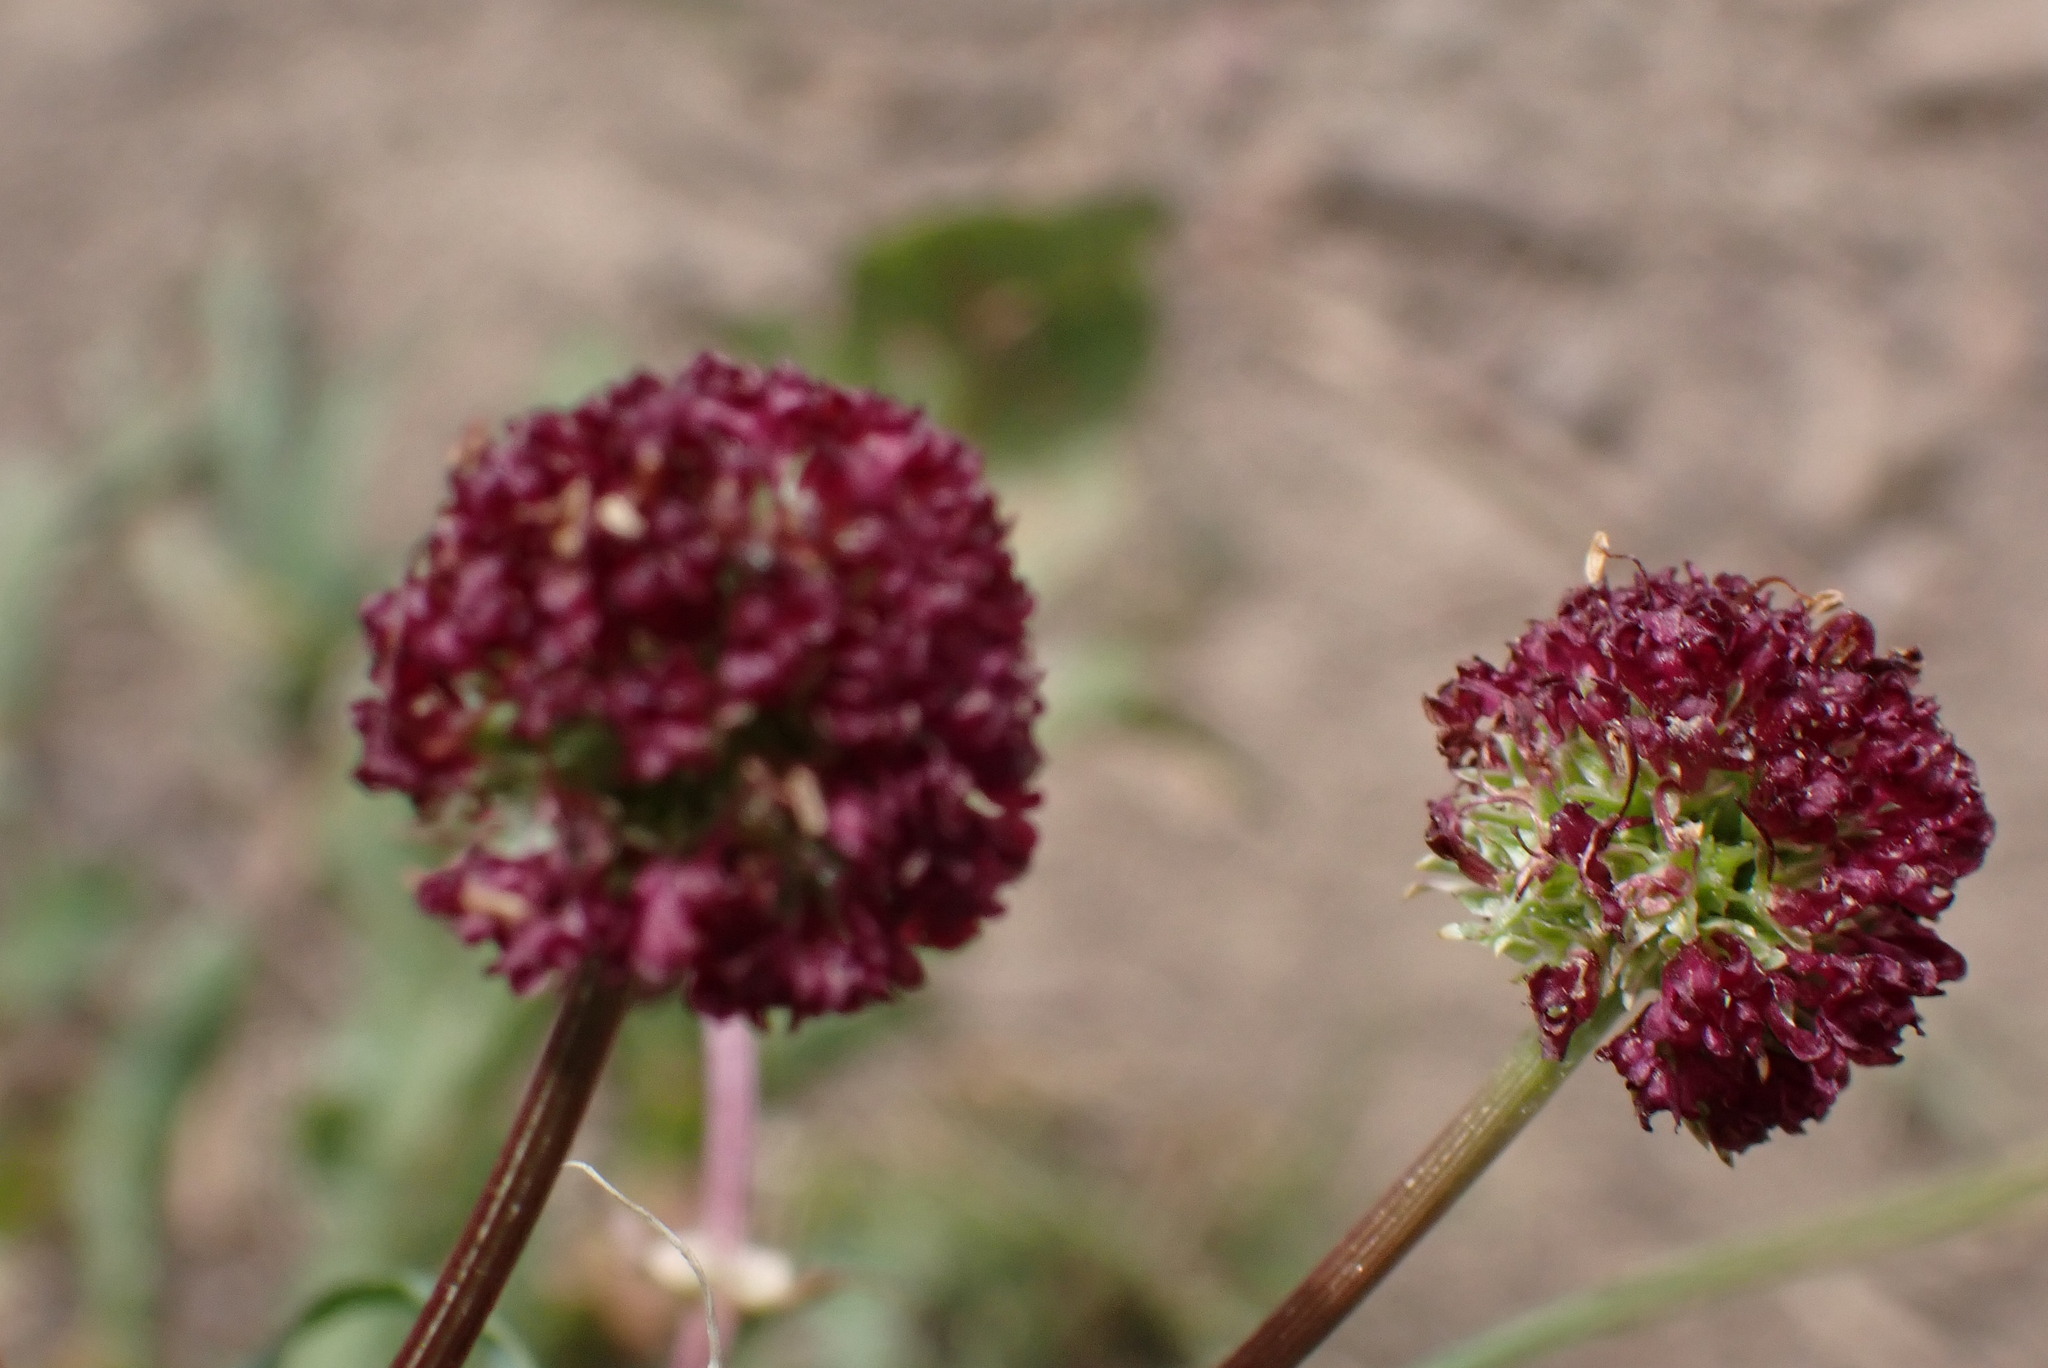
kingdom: Plantae
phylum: Tracheophyta
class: Magnoliopsida
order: Apiales
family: Apiaceae
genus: Sanicula
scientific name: Sanicula bipinnatifida
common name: Shoe-buttons
